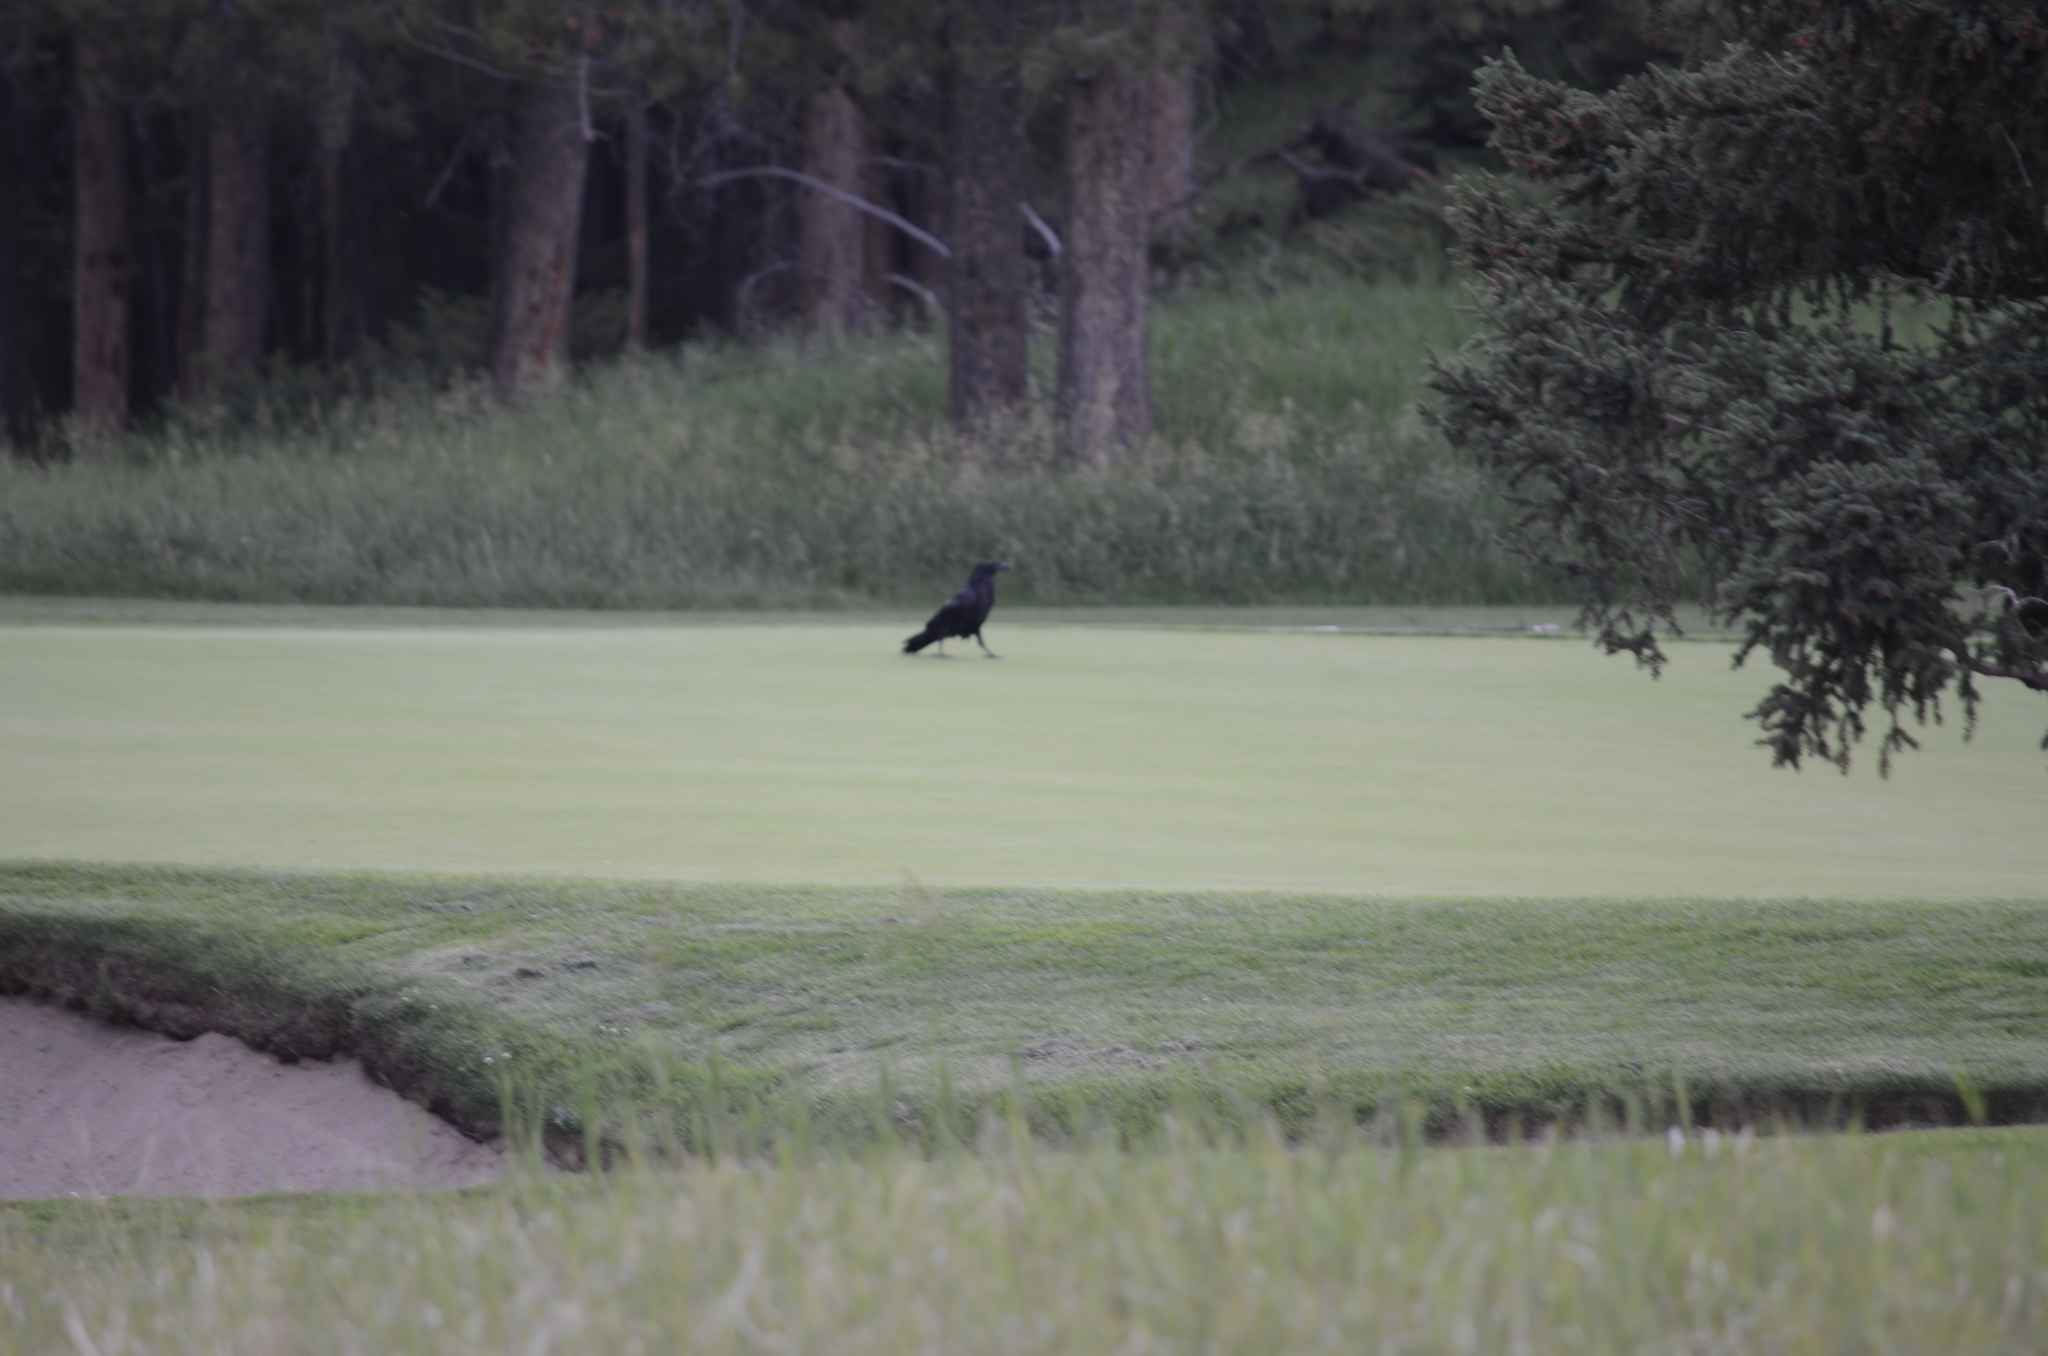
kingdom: Animalia
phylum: Chordata
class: Aves
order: Passeriformes
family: Corvidae
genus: Corvus
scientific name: Corvus corax
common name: Common raven
